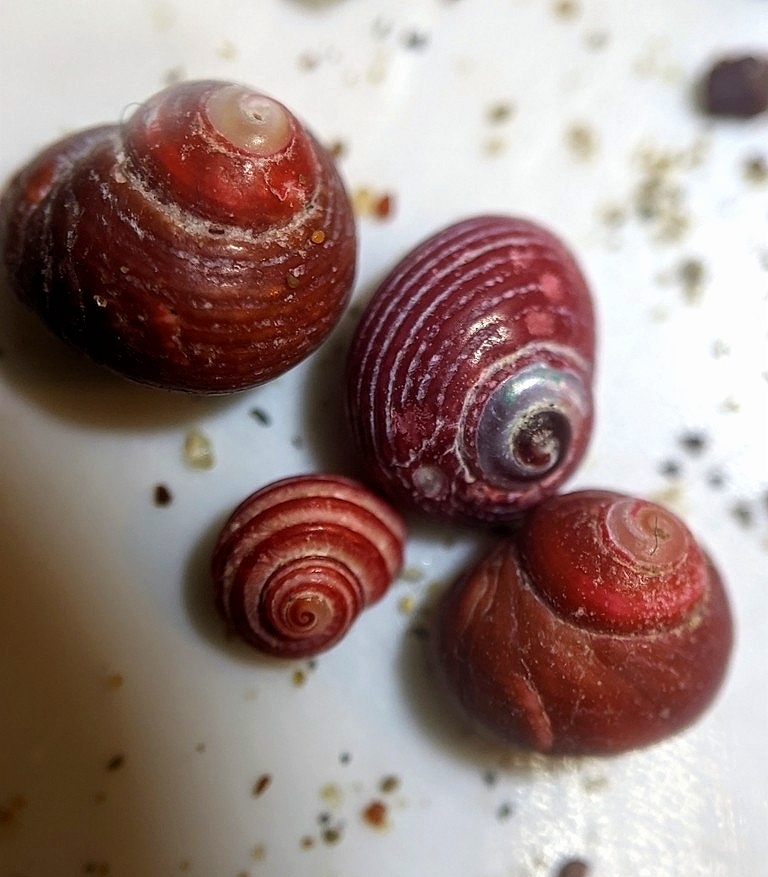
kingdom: Animalia
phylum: Mollusca
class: Gastropoda
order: Trochida
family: Colloniidae
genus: Gigahomalopoma
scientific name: Gigahomalopoma luridum
